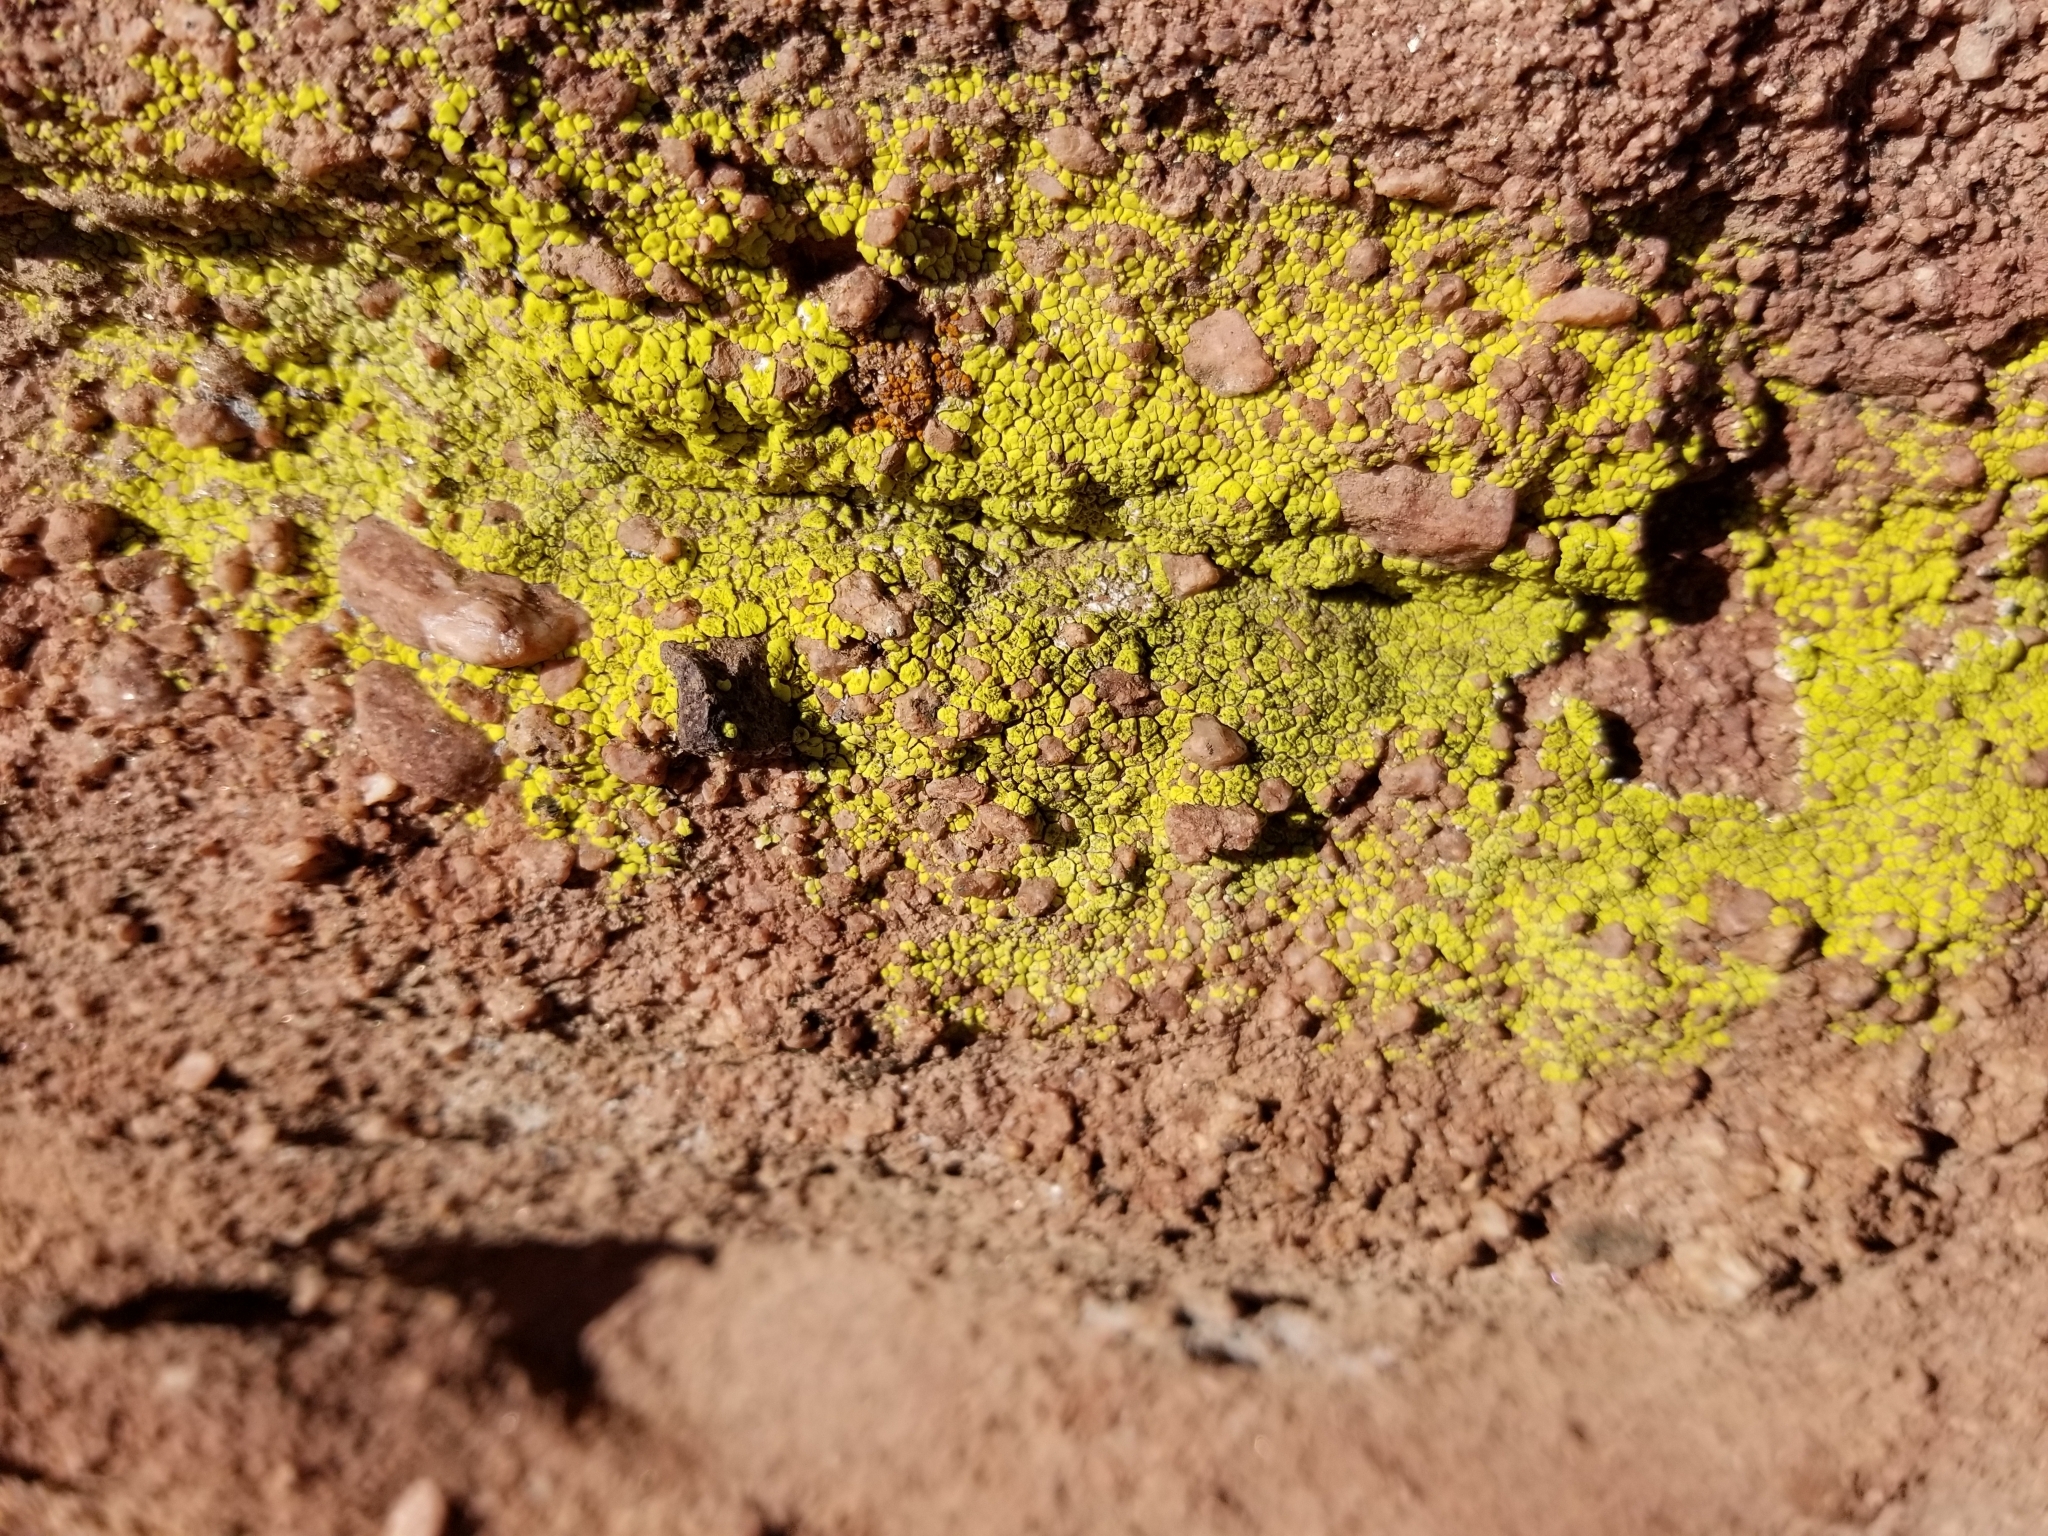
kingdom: Fungi
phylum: Ascomycota
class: Lecanoromycetes
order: Acarosporales
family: Acarosporaceae
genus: Acarospora
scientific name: Acarospora socialis
